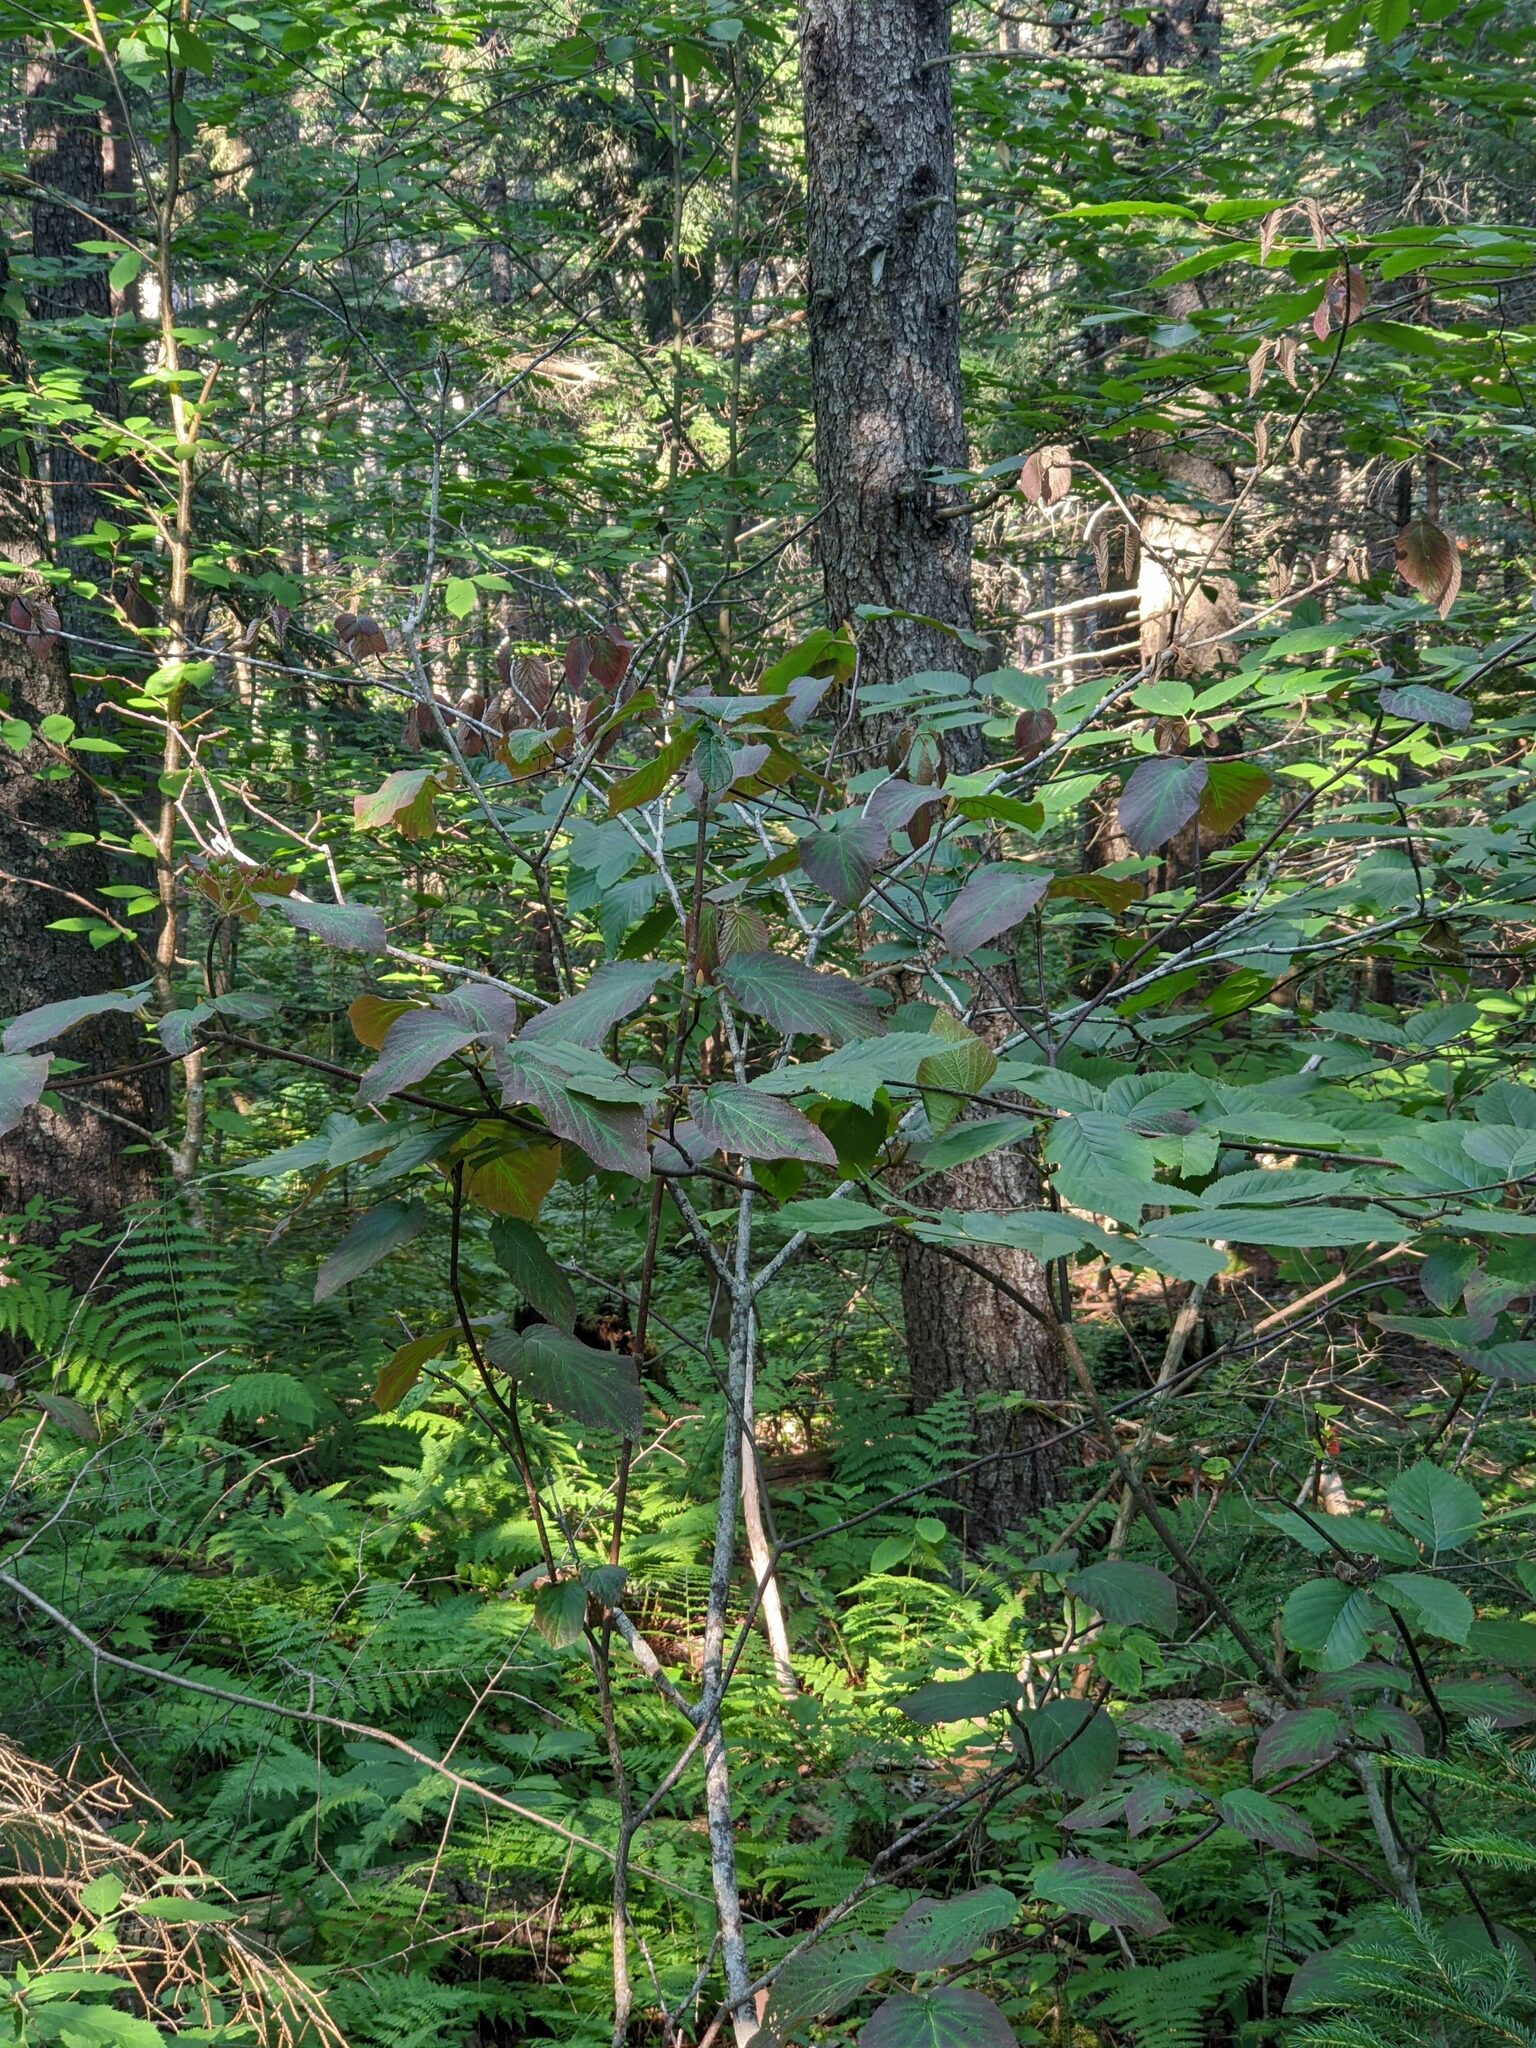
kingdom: Plantae
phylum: Tracheophyta
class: Magnoliopsida
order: Dipsacales
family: Viburnaceae
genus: Viburnum
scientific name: Viburnum lantanoides
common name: Hobblebush
